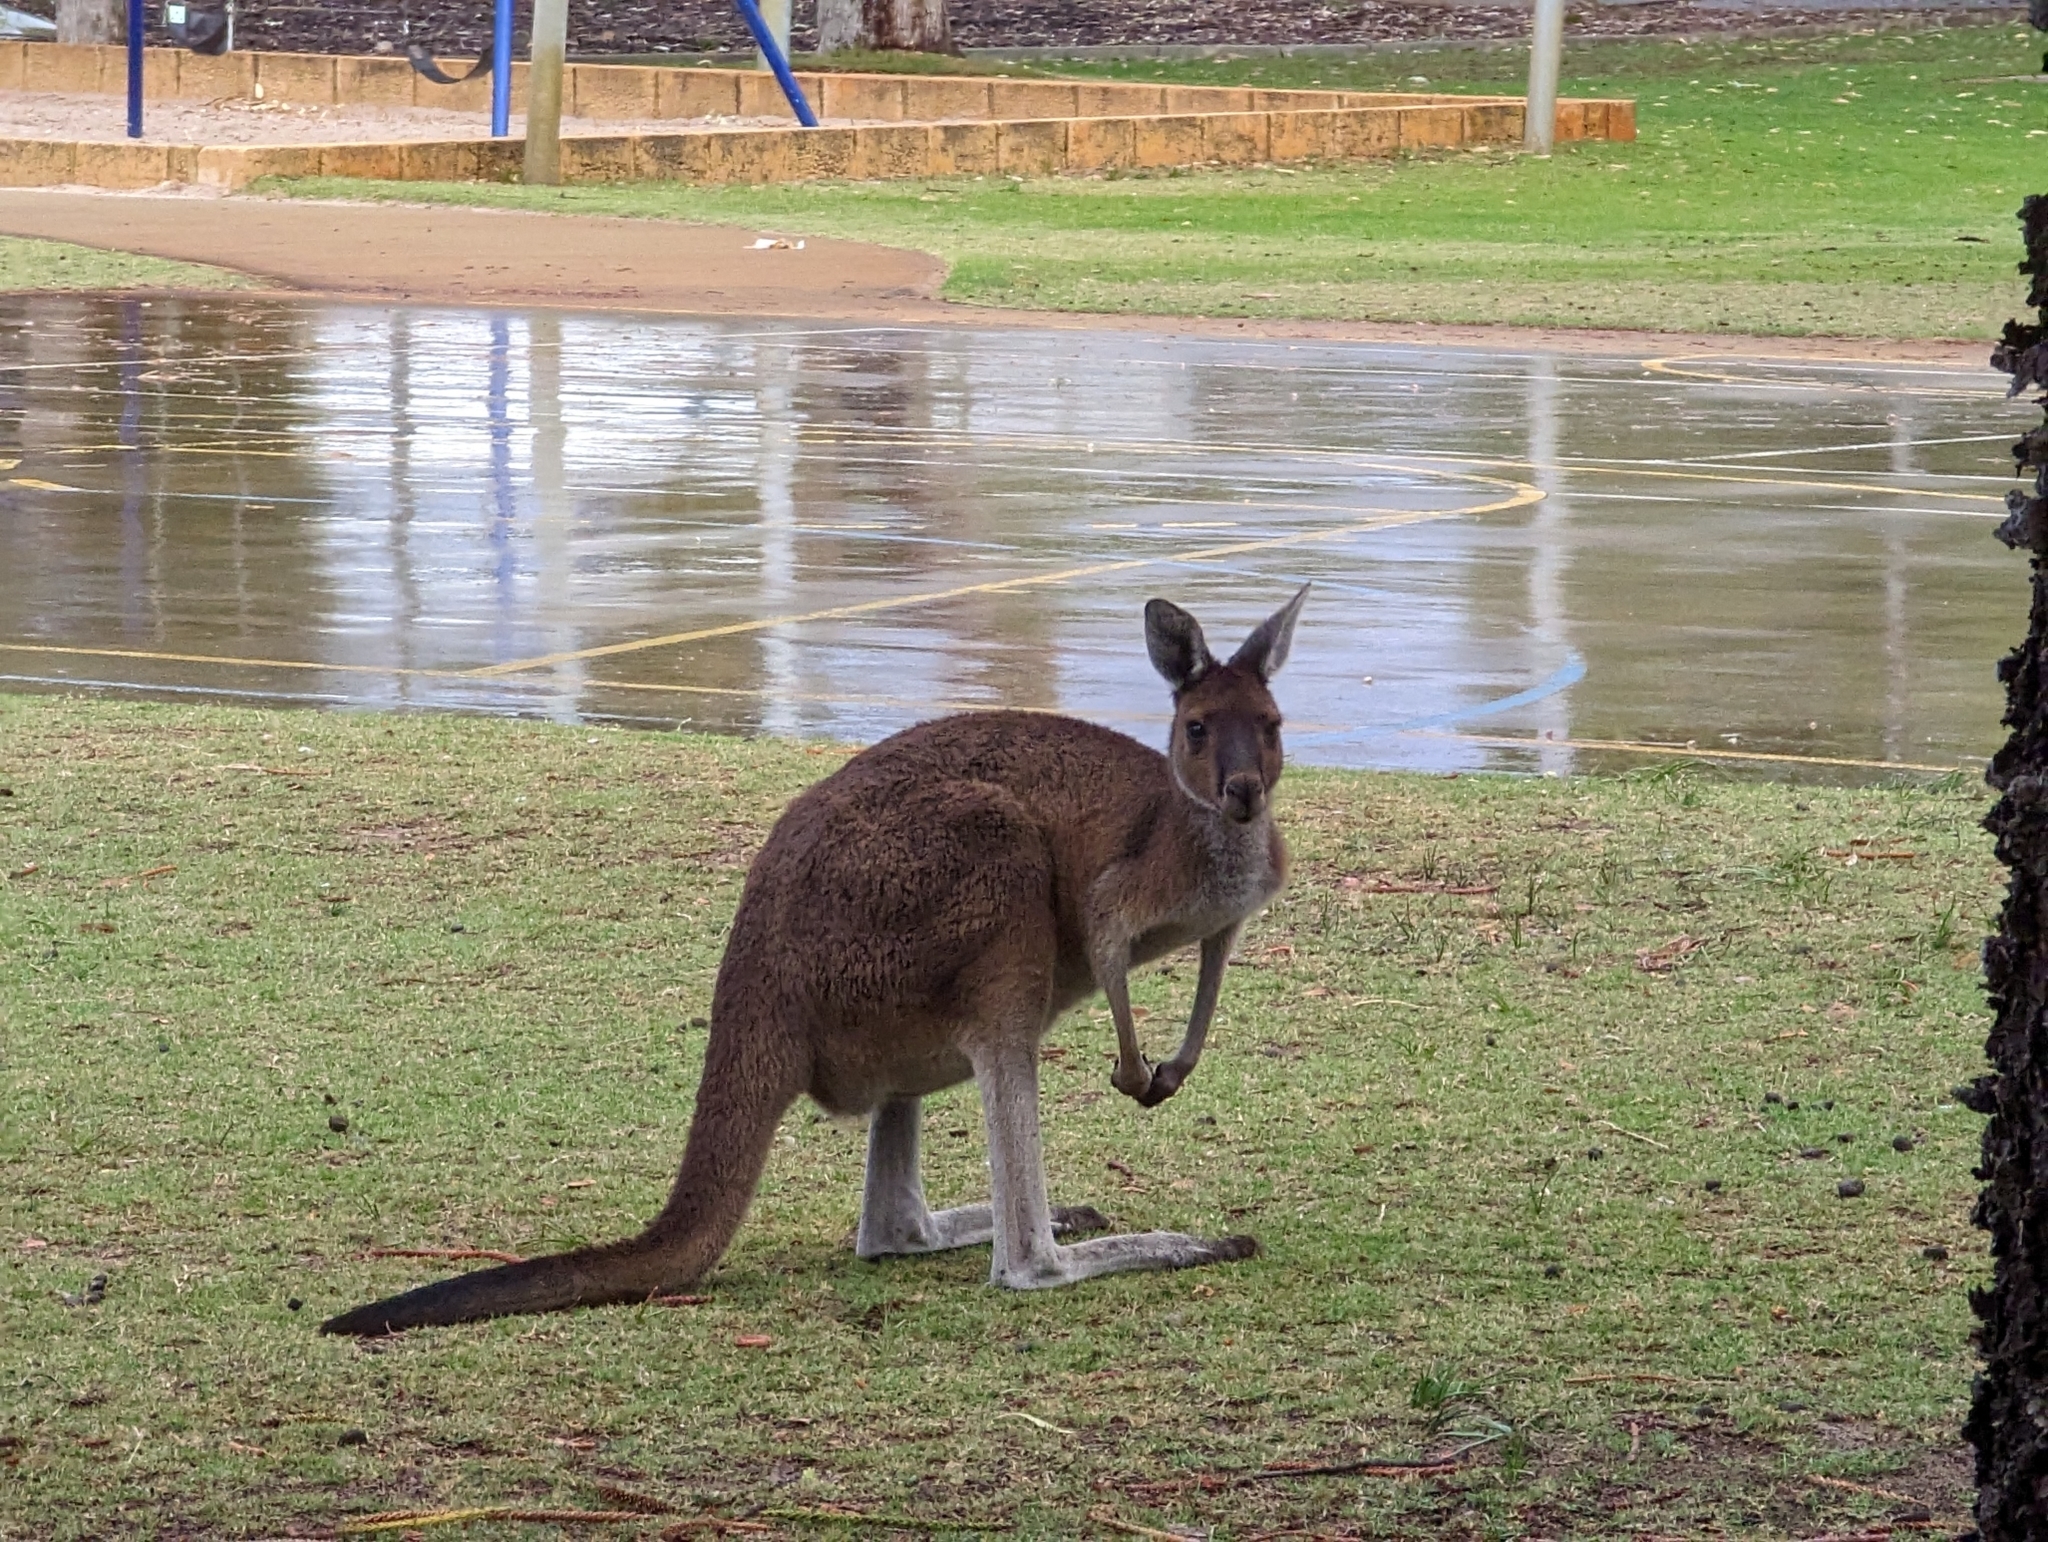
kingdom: Animalia
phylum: Chordata
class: Mammalia
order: Diprotodontia
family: Macropodidae
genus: Macropus
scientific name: Macropus fuliginosus
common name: Western grey kangaroo
